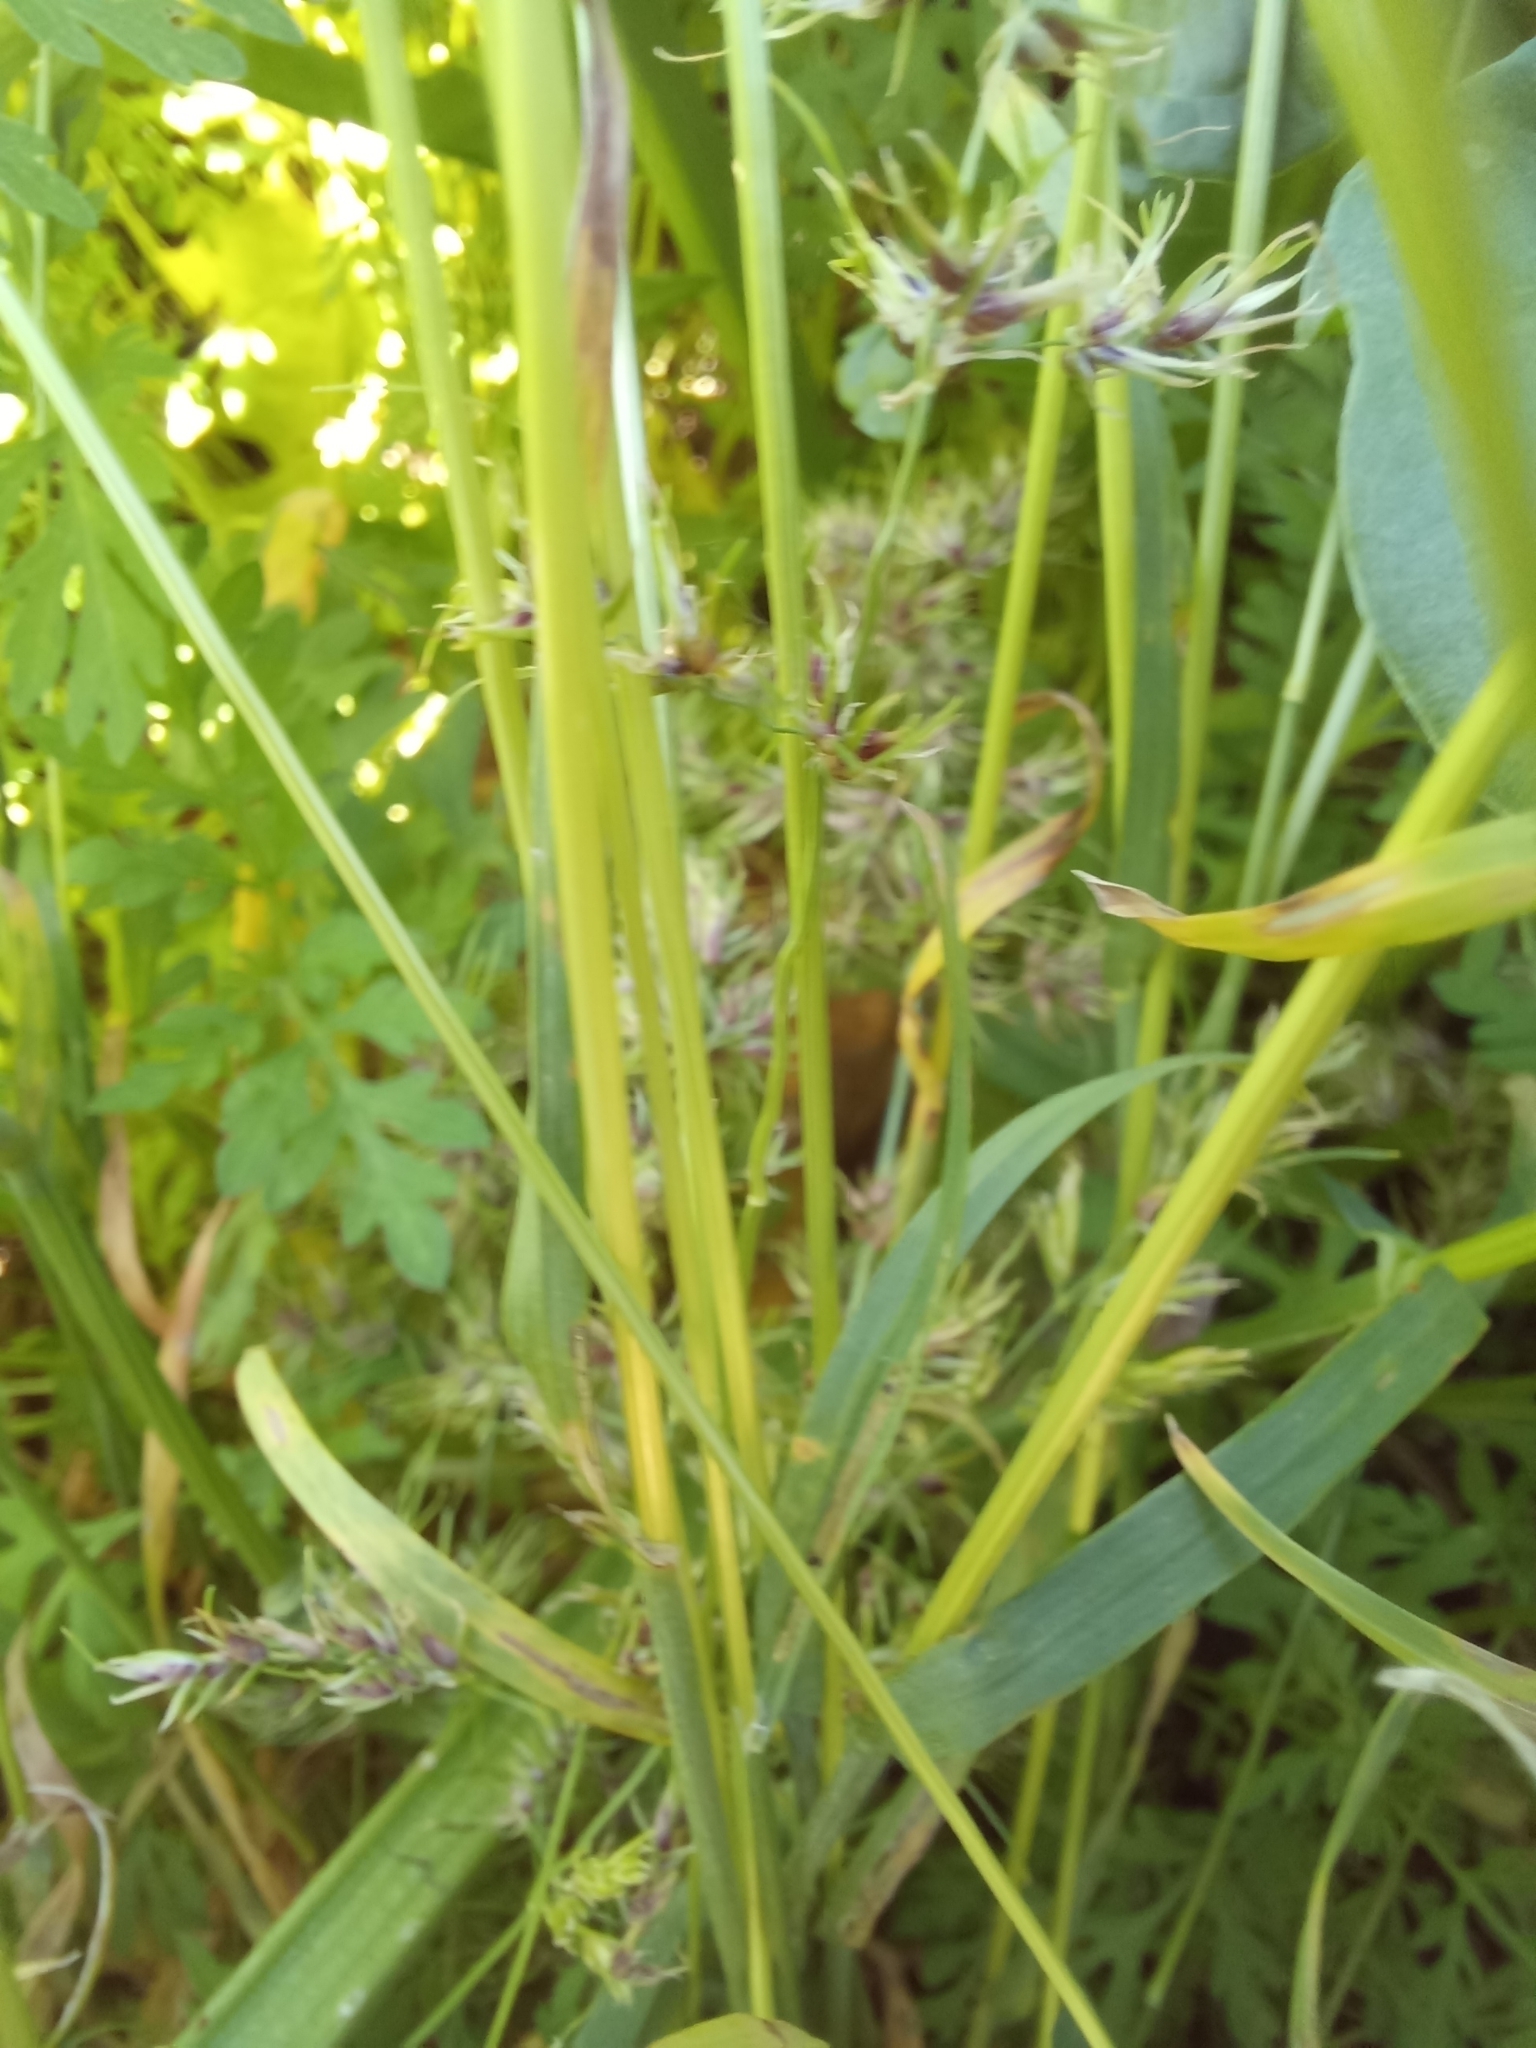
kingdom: Plantae
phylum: Tracheophyta
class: Liliopsida
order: Poales
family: Poaceae
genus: Poa
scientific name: Poa bulbosa
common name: Bulbous bluegrass
